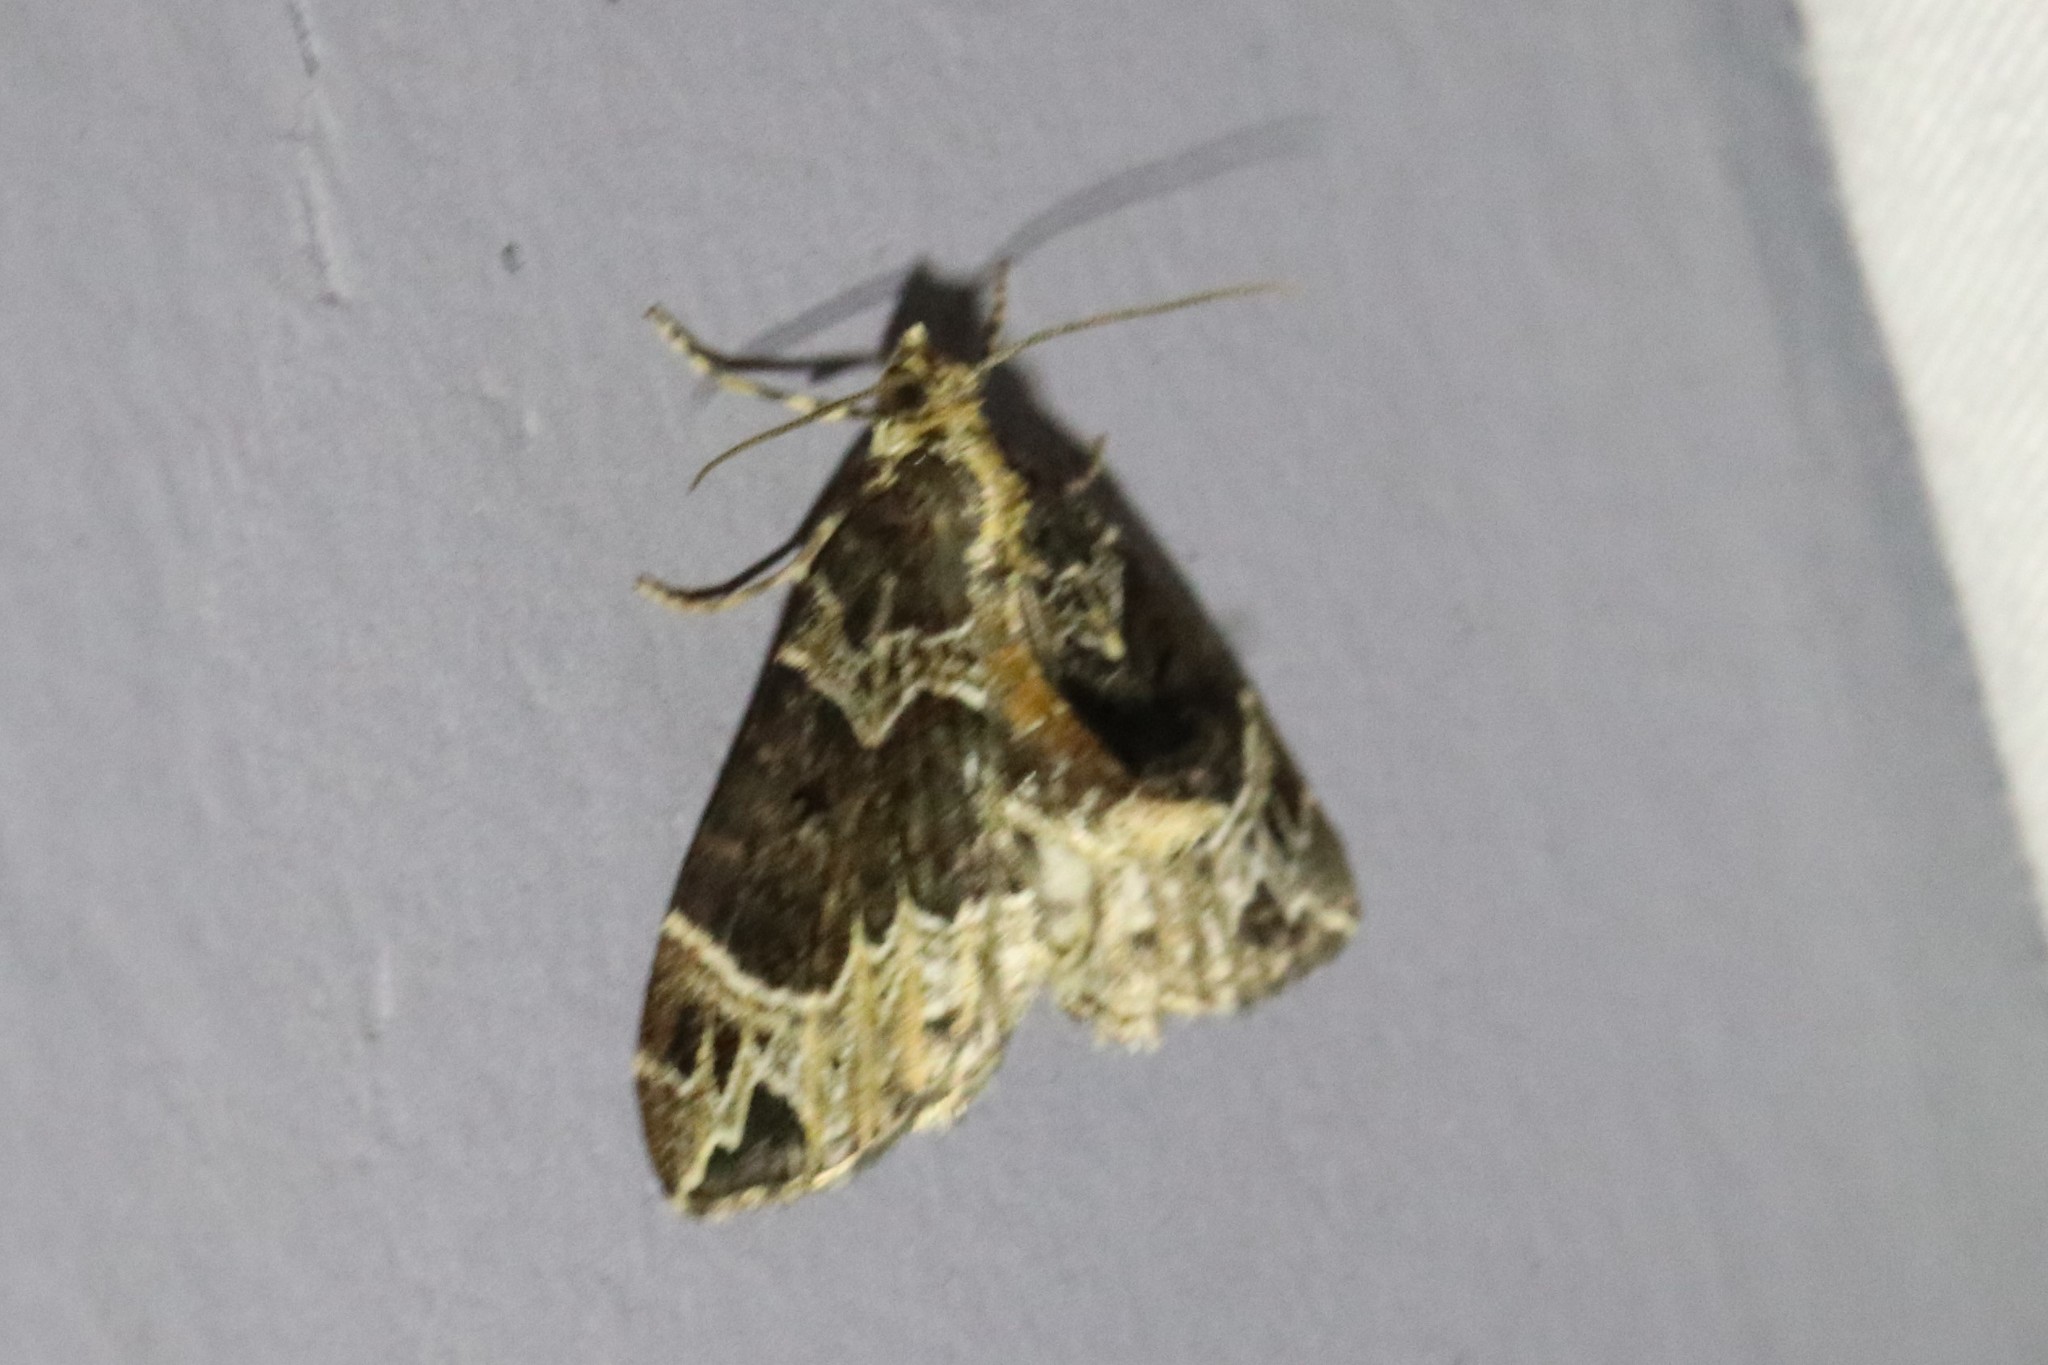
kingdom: Animalia
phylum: Arthropoda
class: Insecta
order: Lepidoptera
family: Geometridae
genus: Ecliptopera
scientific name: Ecliptopera silaceata
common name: Small phoenix
